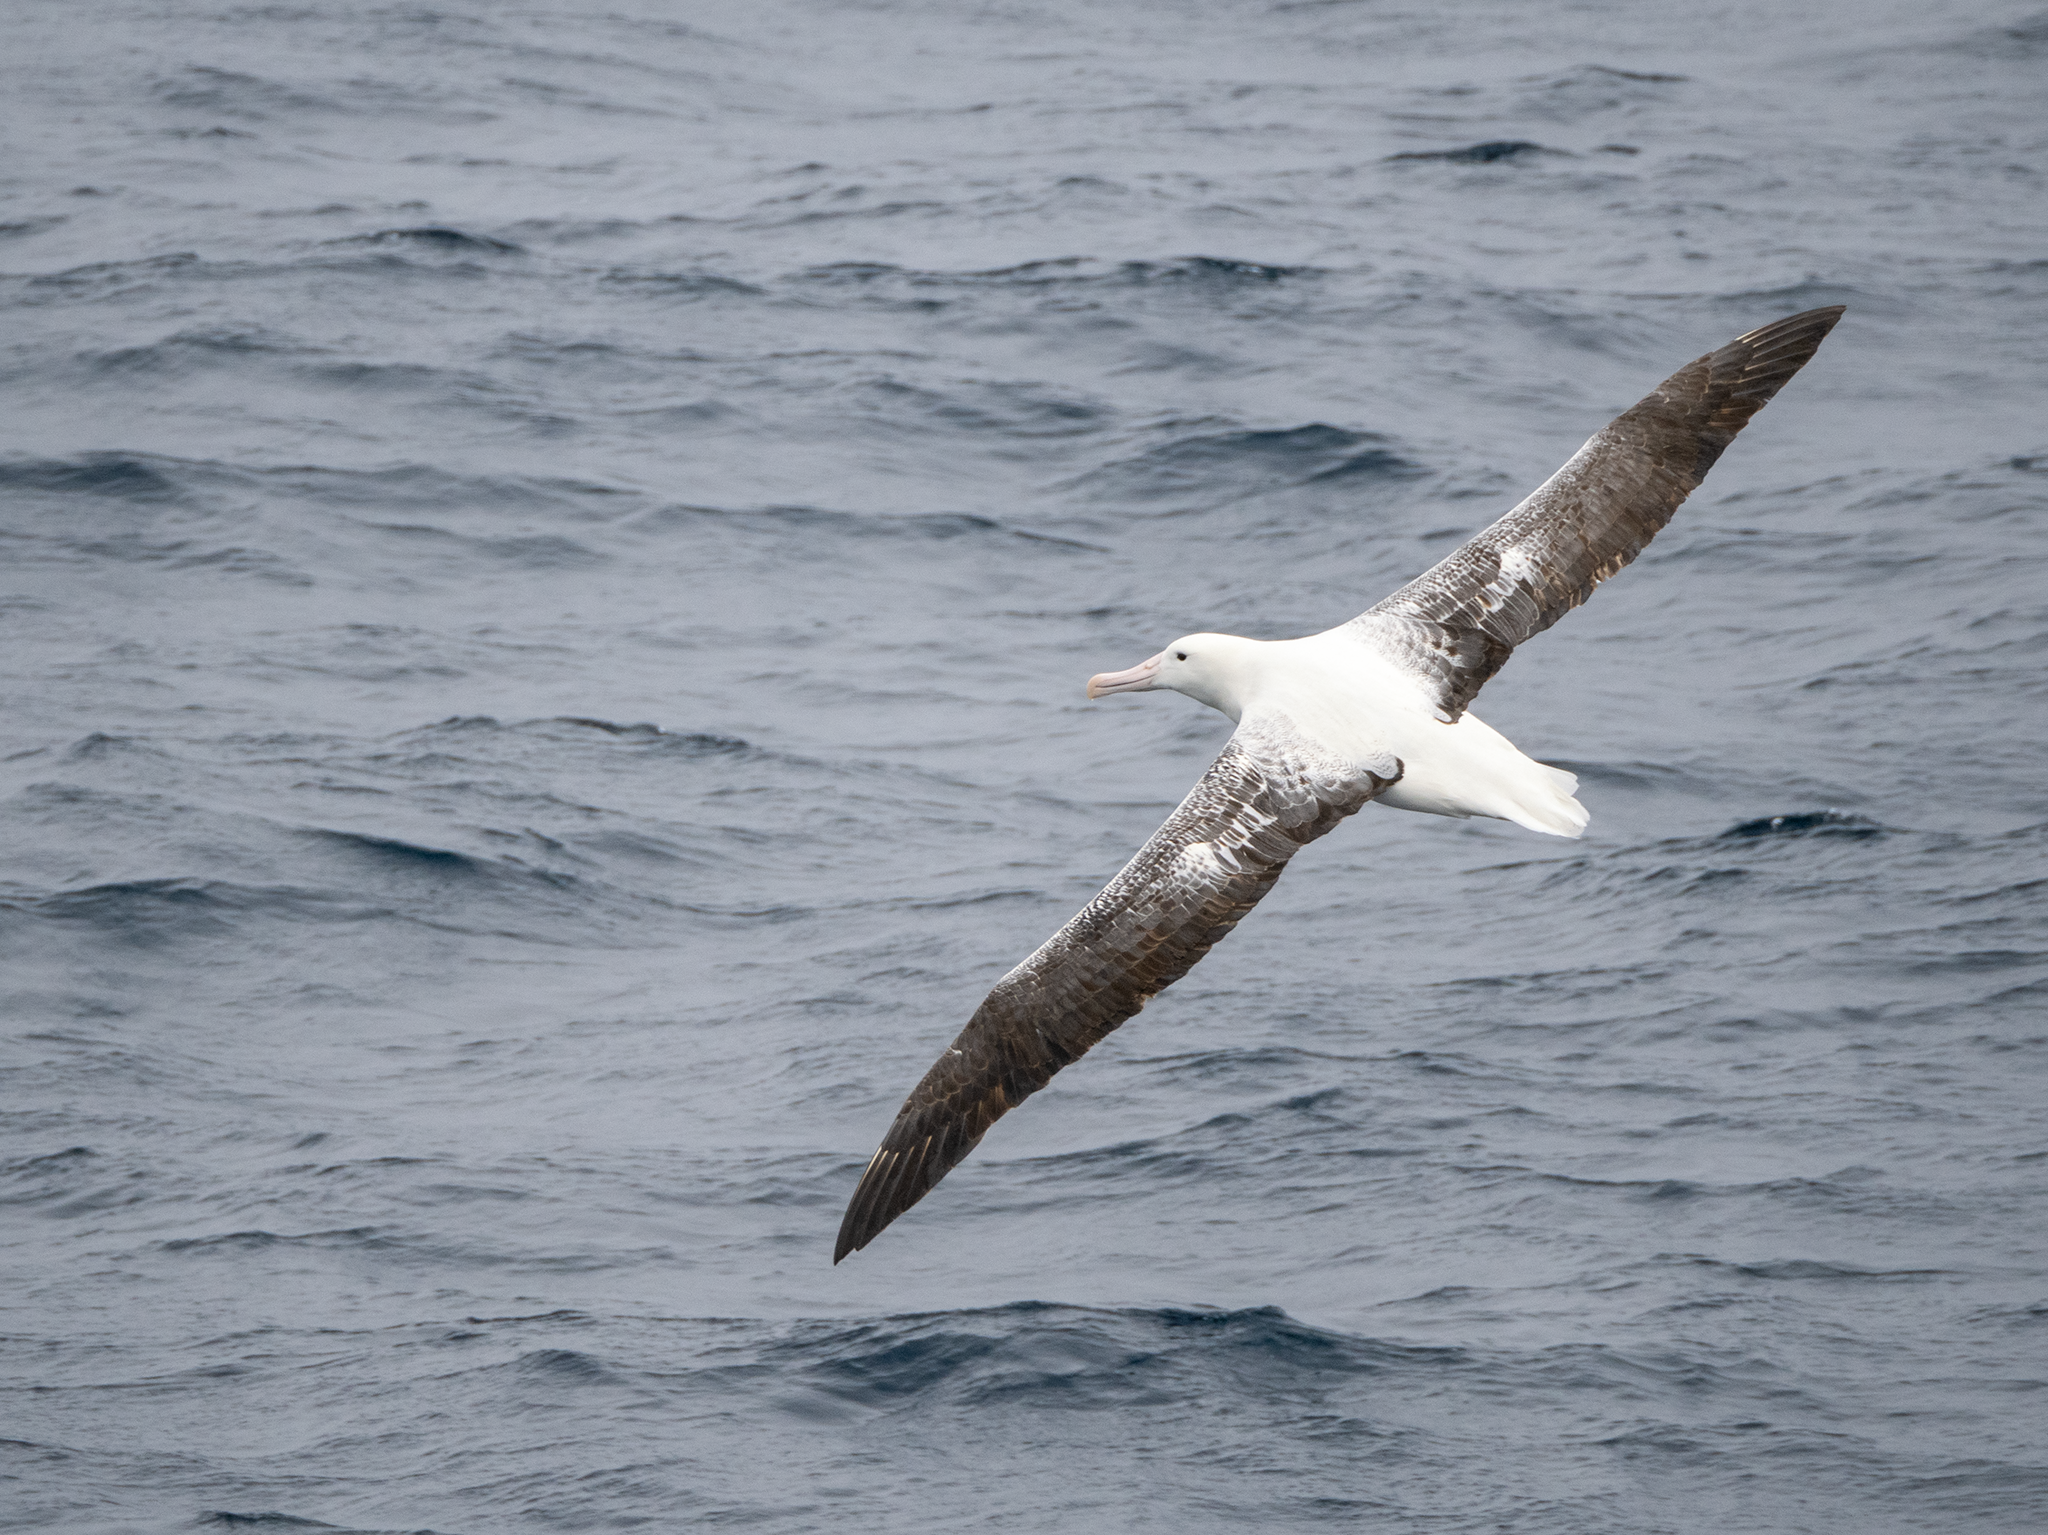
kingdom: Animalia
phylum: Chordata
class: Aves
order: Procellariiformes
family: Diomedeidae
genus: Diomedea
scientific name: Diomedea epomophora
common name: Southern royal albatross
